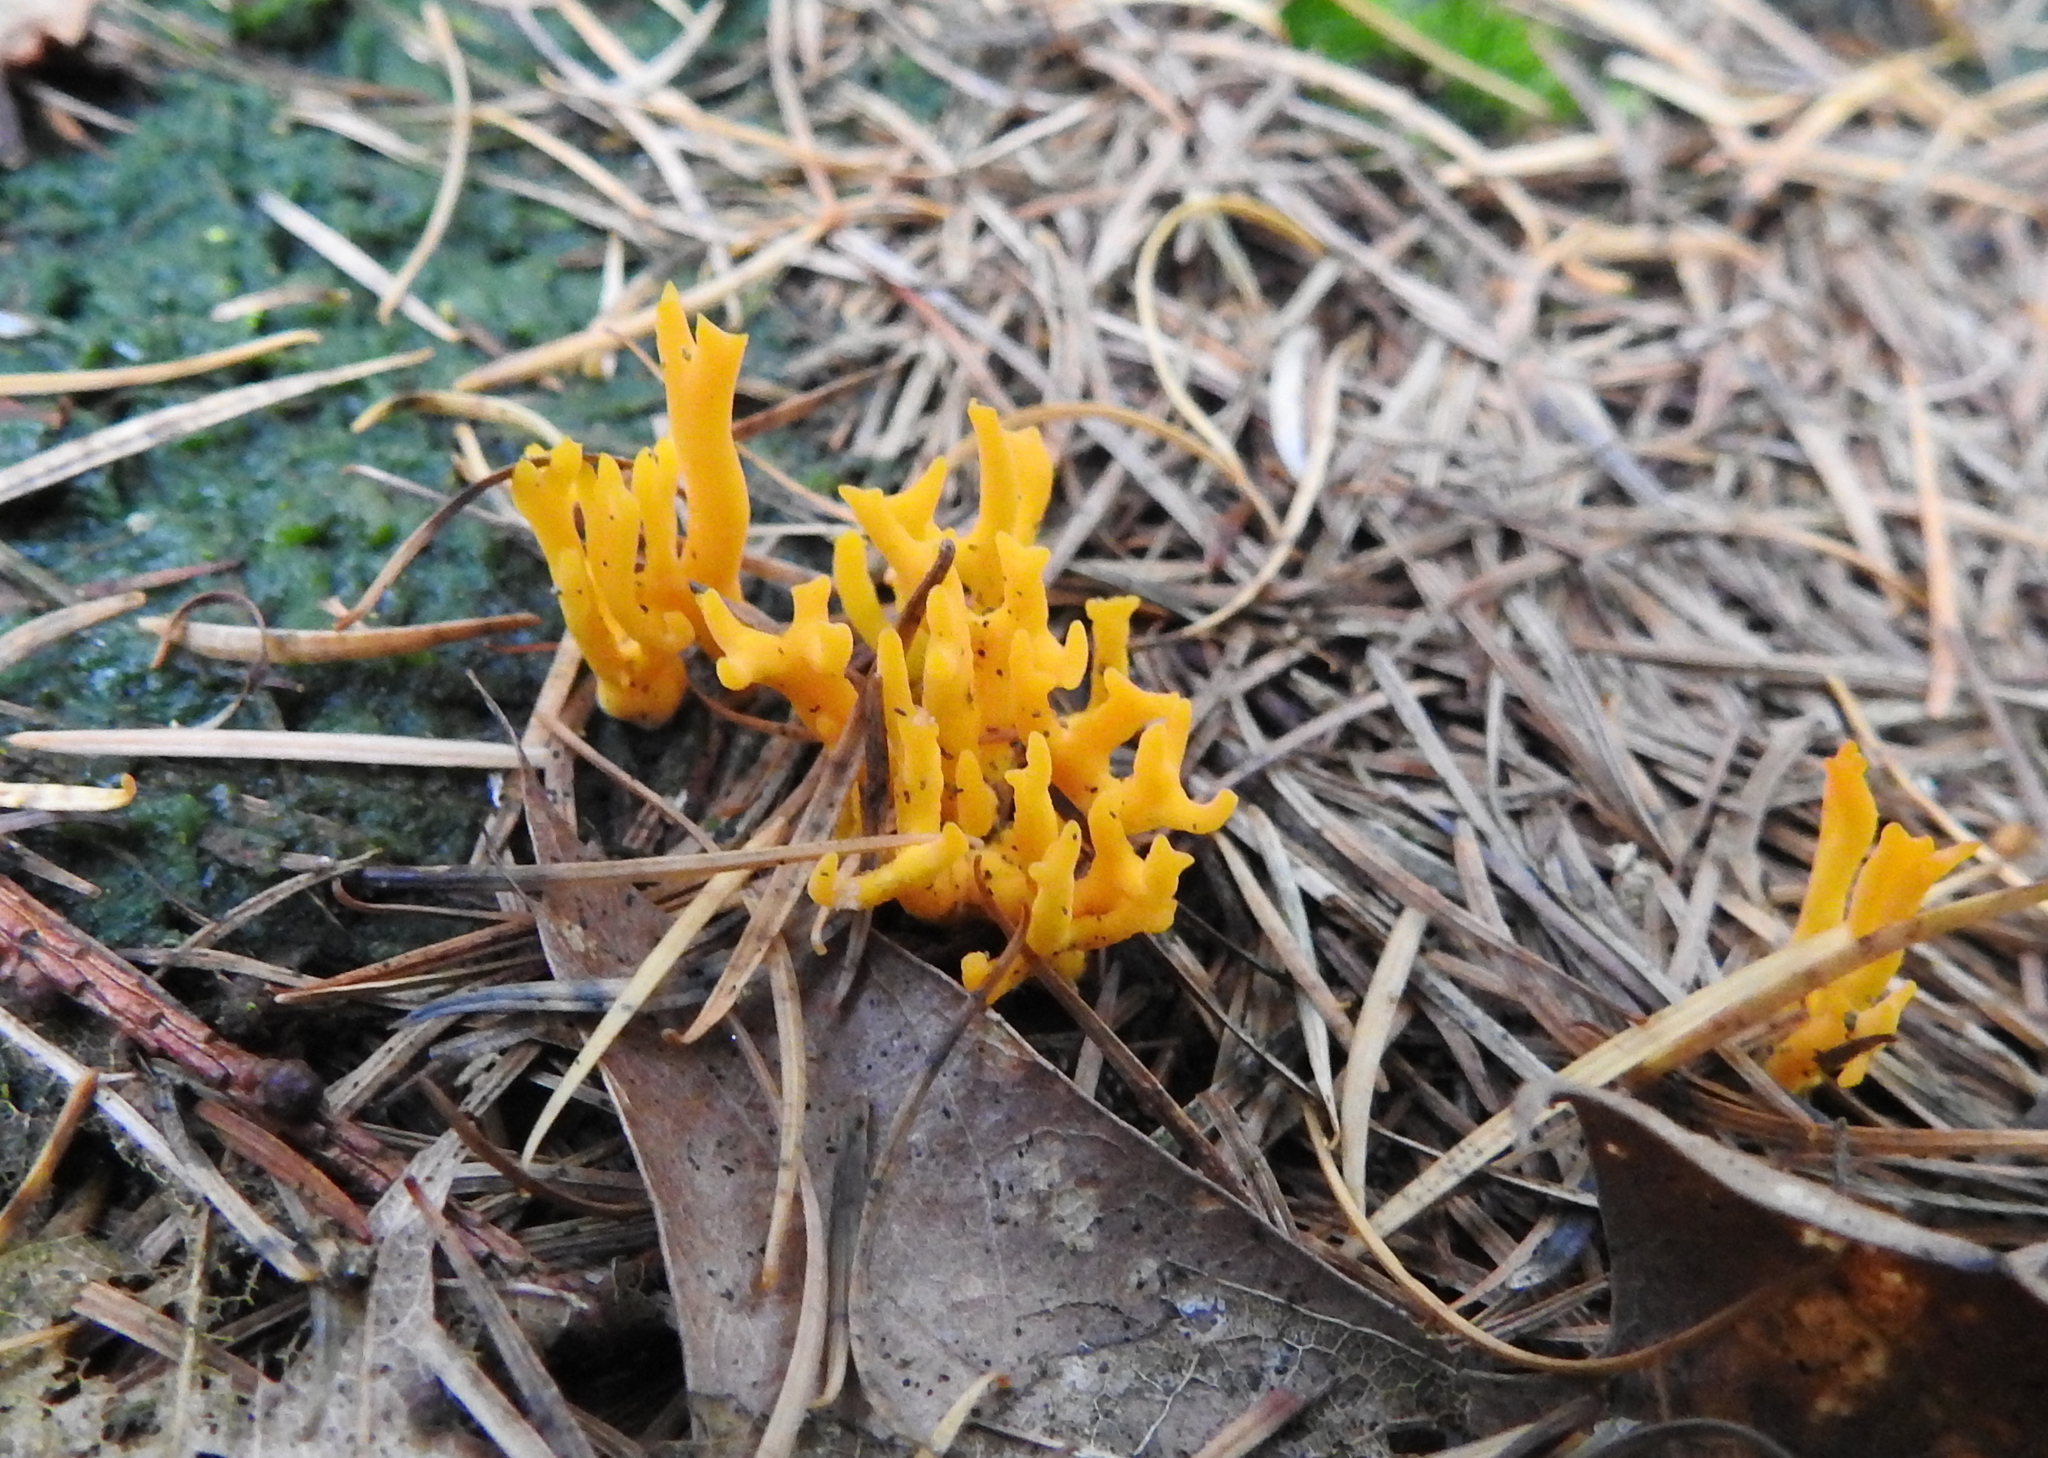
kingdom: Fungi
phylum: Basidiomycota
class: Dacrymycetes
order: Dacrymycetales
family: Dacrymycetaceae
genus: Calocera
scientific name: Calocera viscosa
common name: Yellow stagshorn
